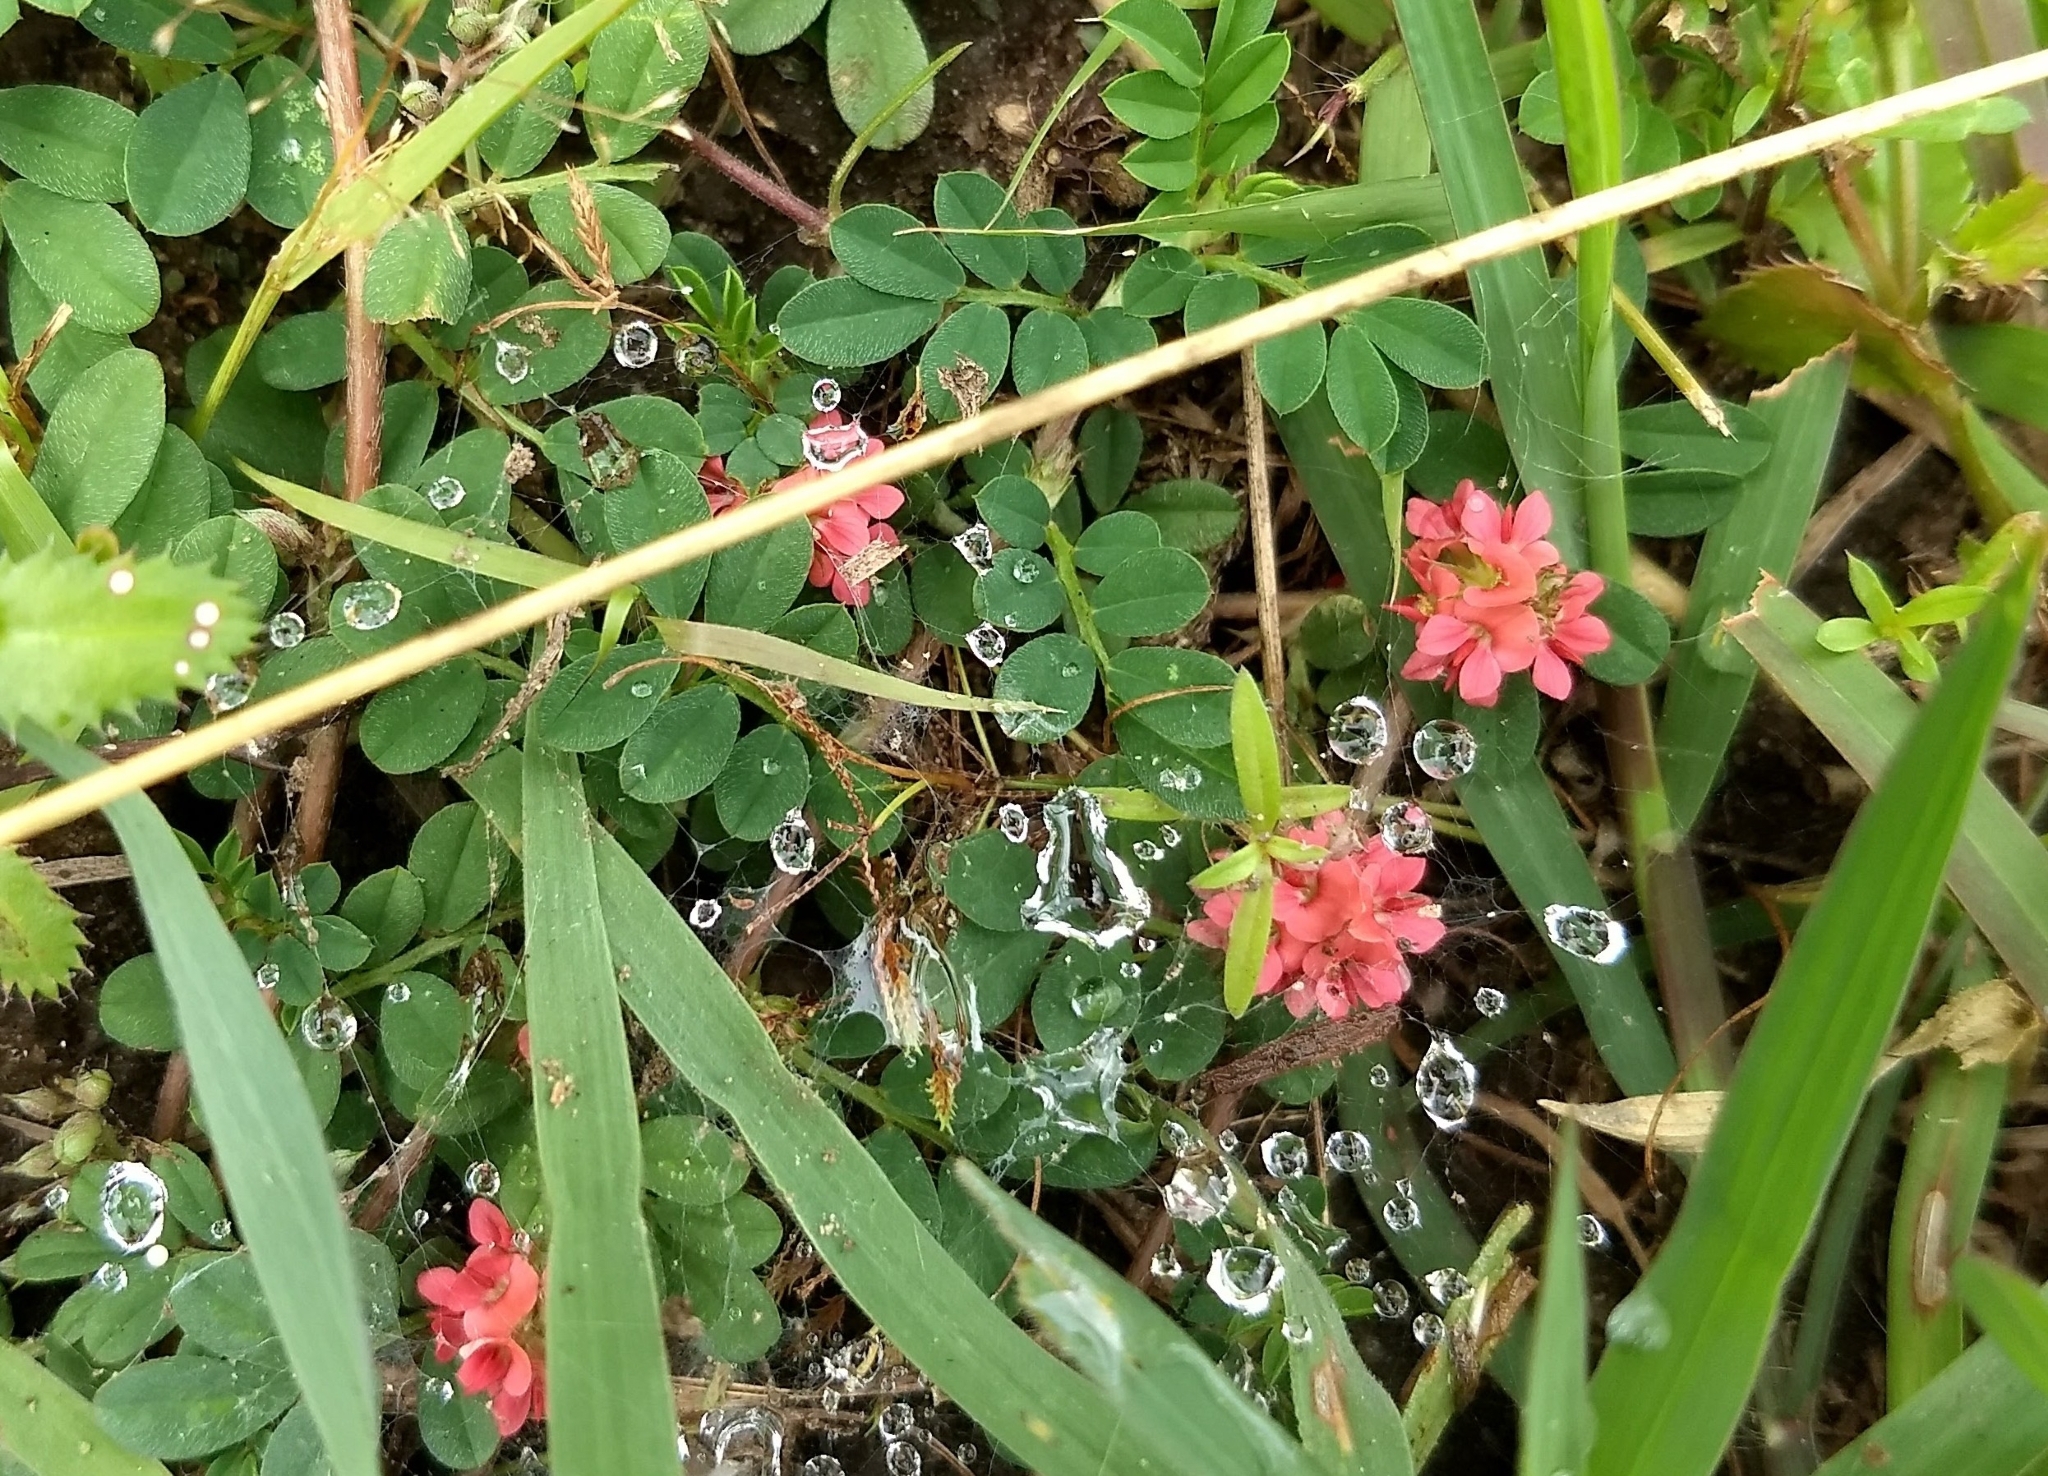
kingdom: Plantae
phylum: Tracheophyta
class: Magnoliopsida
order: Fabales
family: Fabaceae
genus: Indigofera
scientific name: Indigofera hendecaphylla
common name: Trailing indigo
